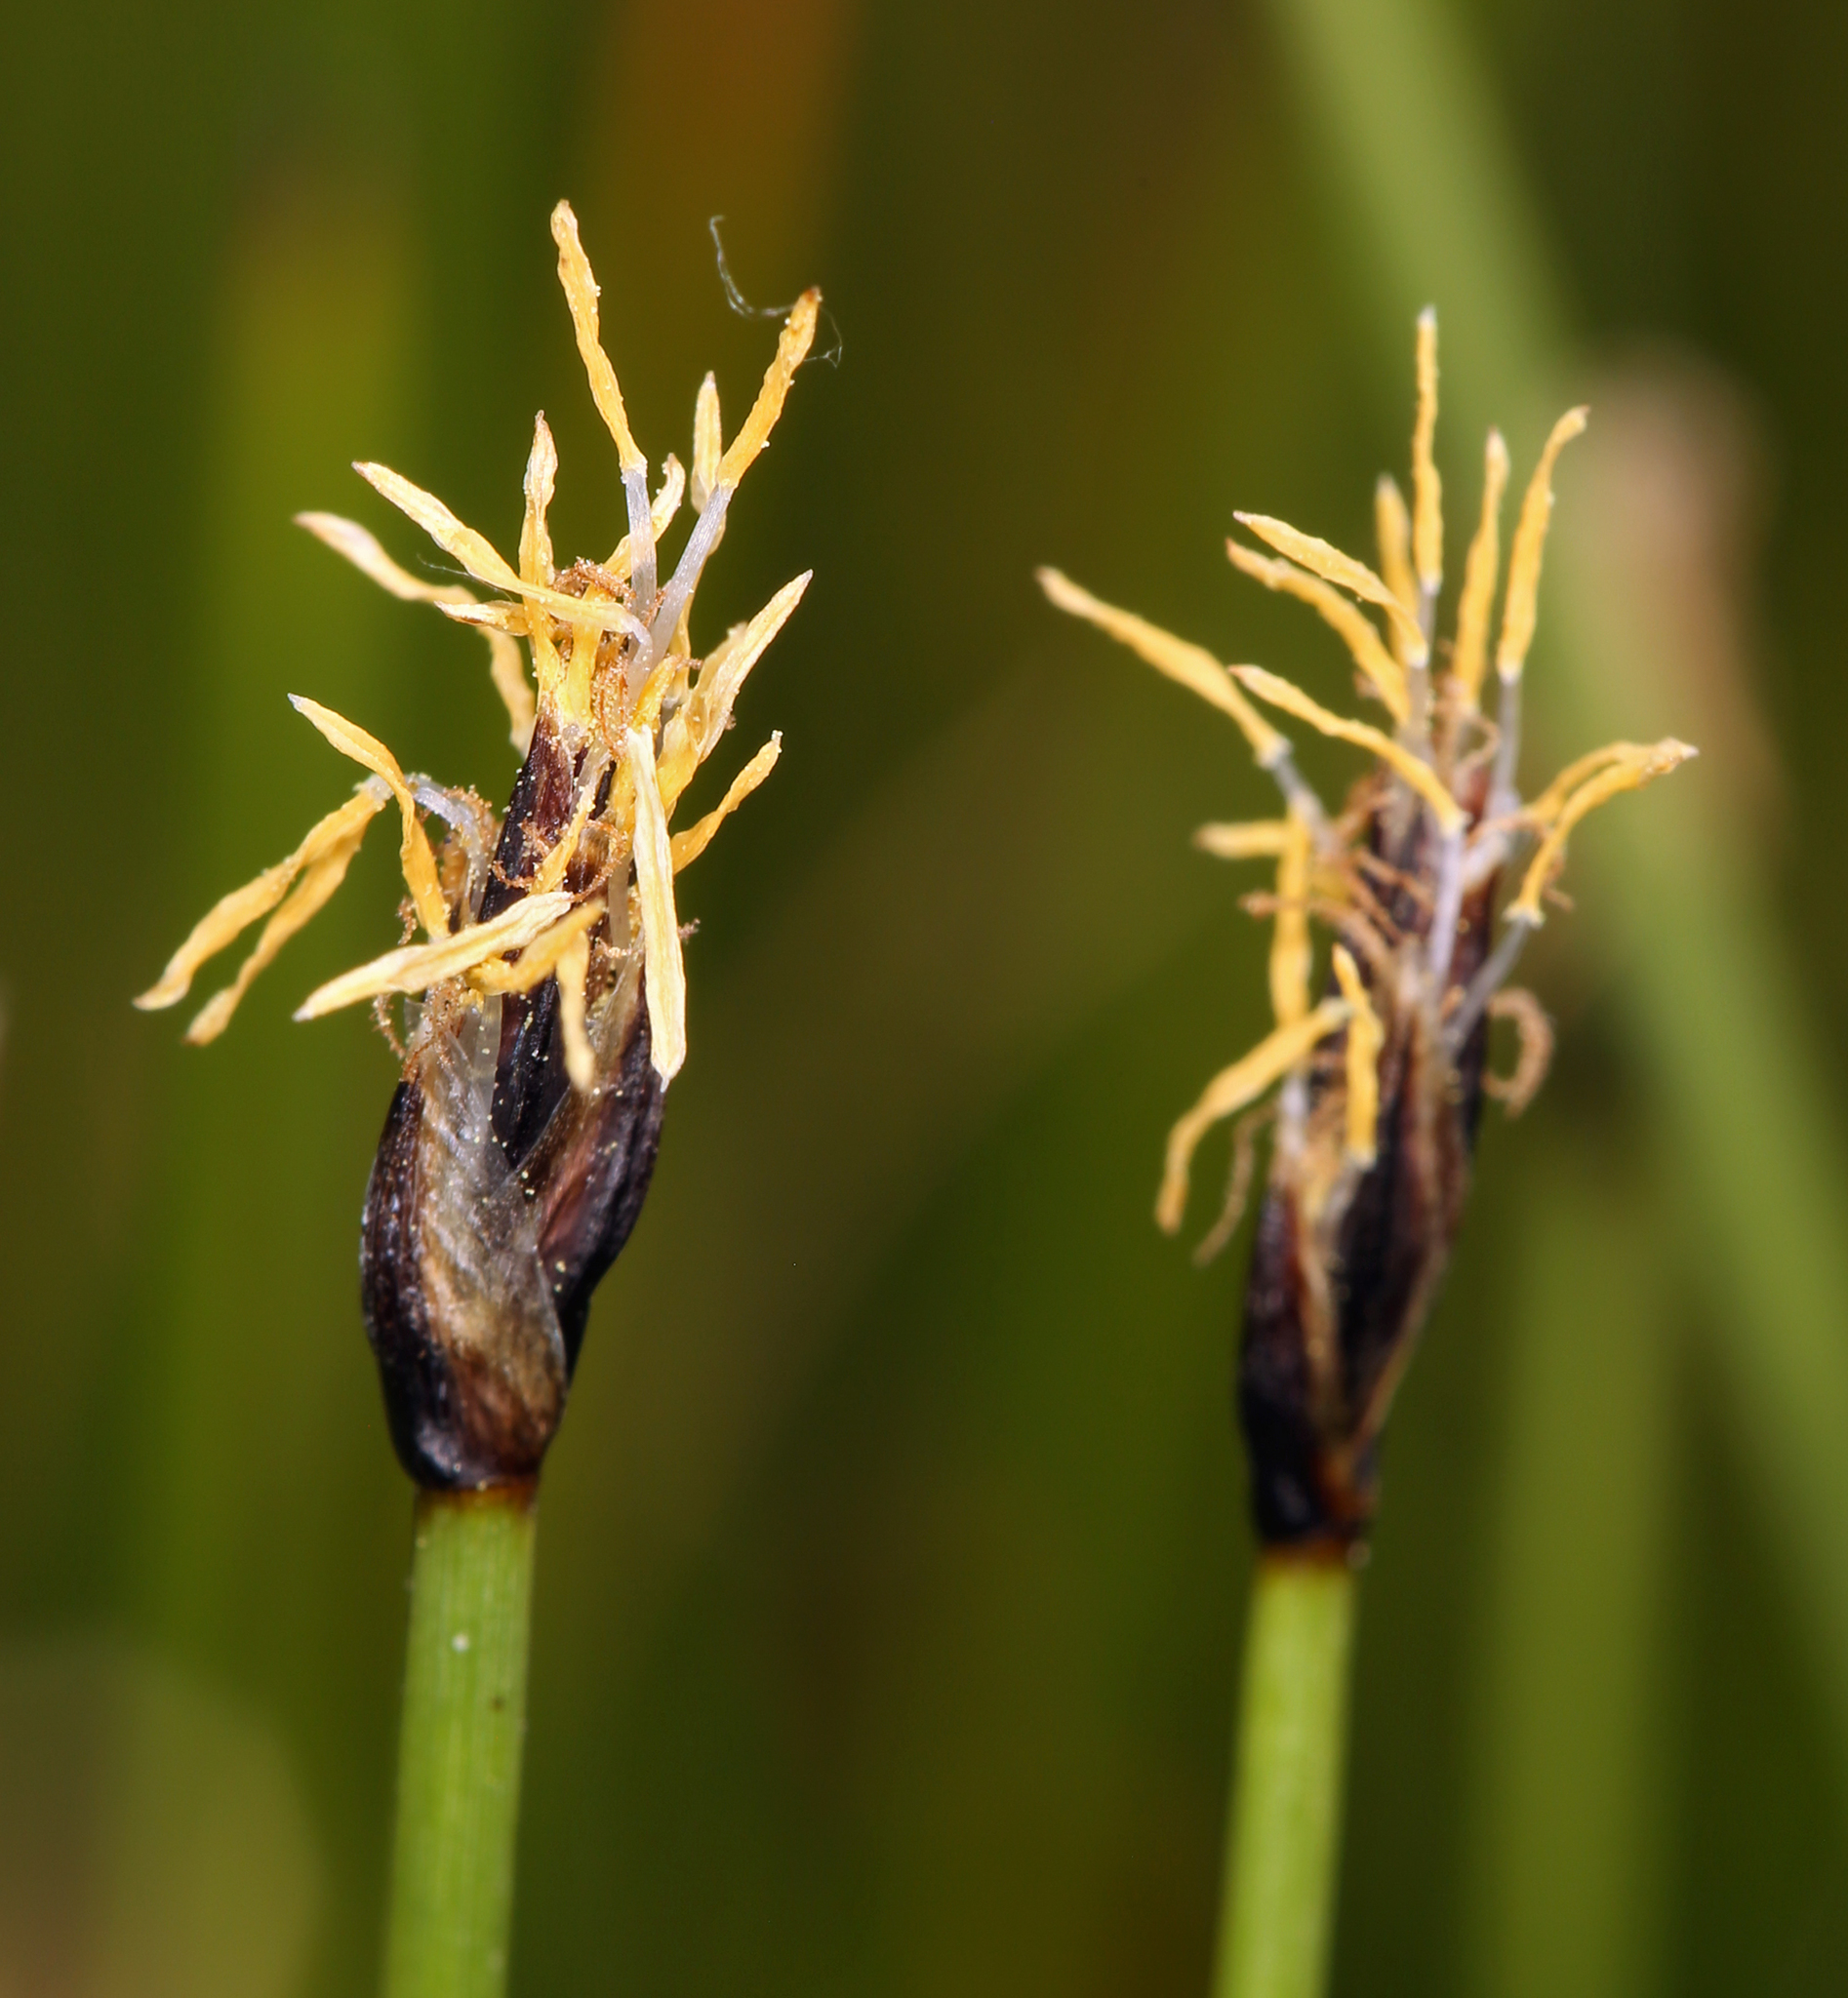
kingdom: Plantae
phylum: Tracheophyta
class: Liliopsida
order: Poales
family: Cyperaceae
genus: Eleocharis
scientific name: Eleocharis quinqueflora
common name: Few-flowered spike-rush
